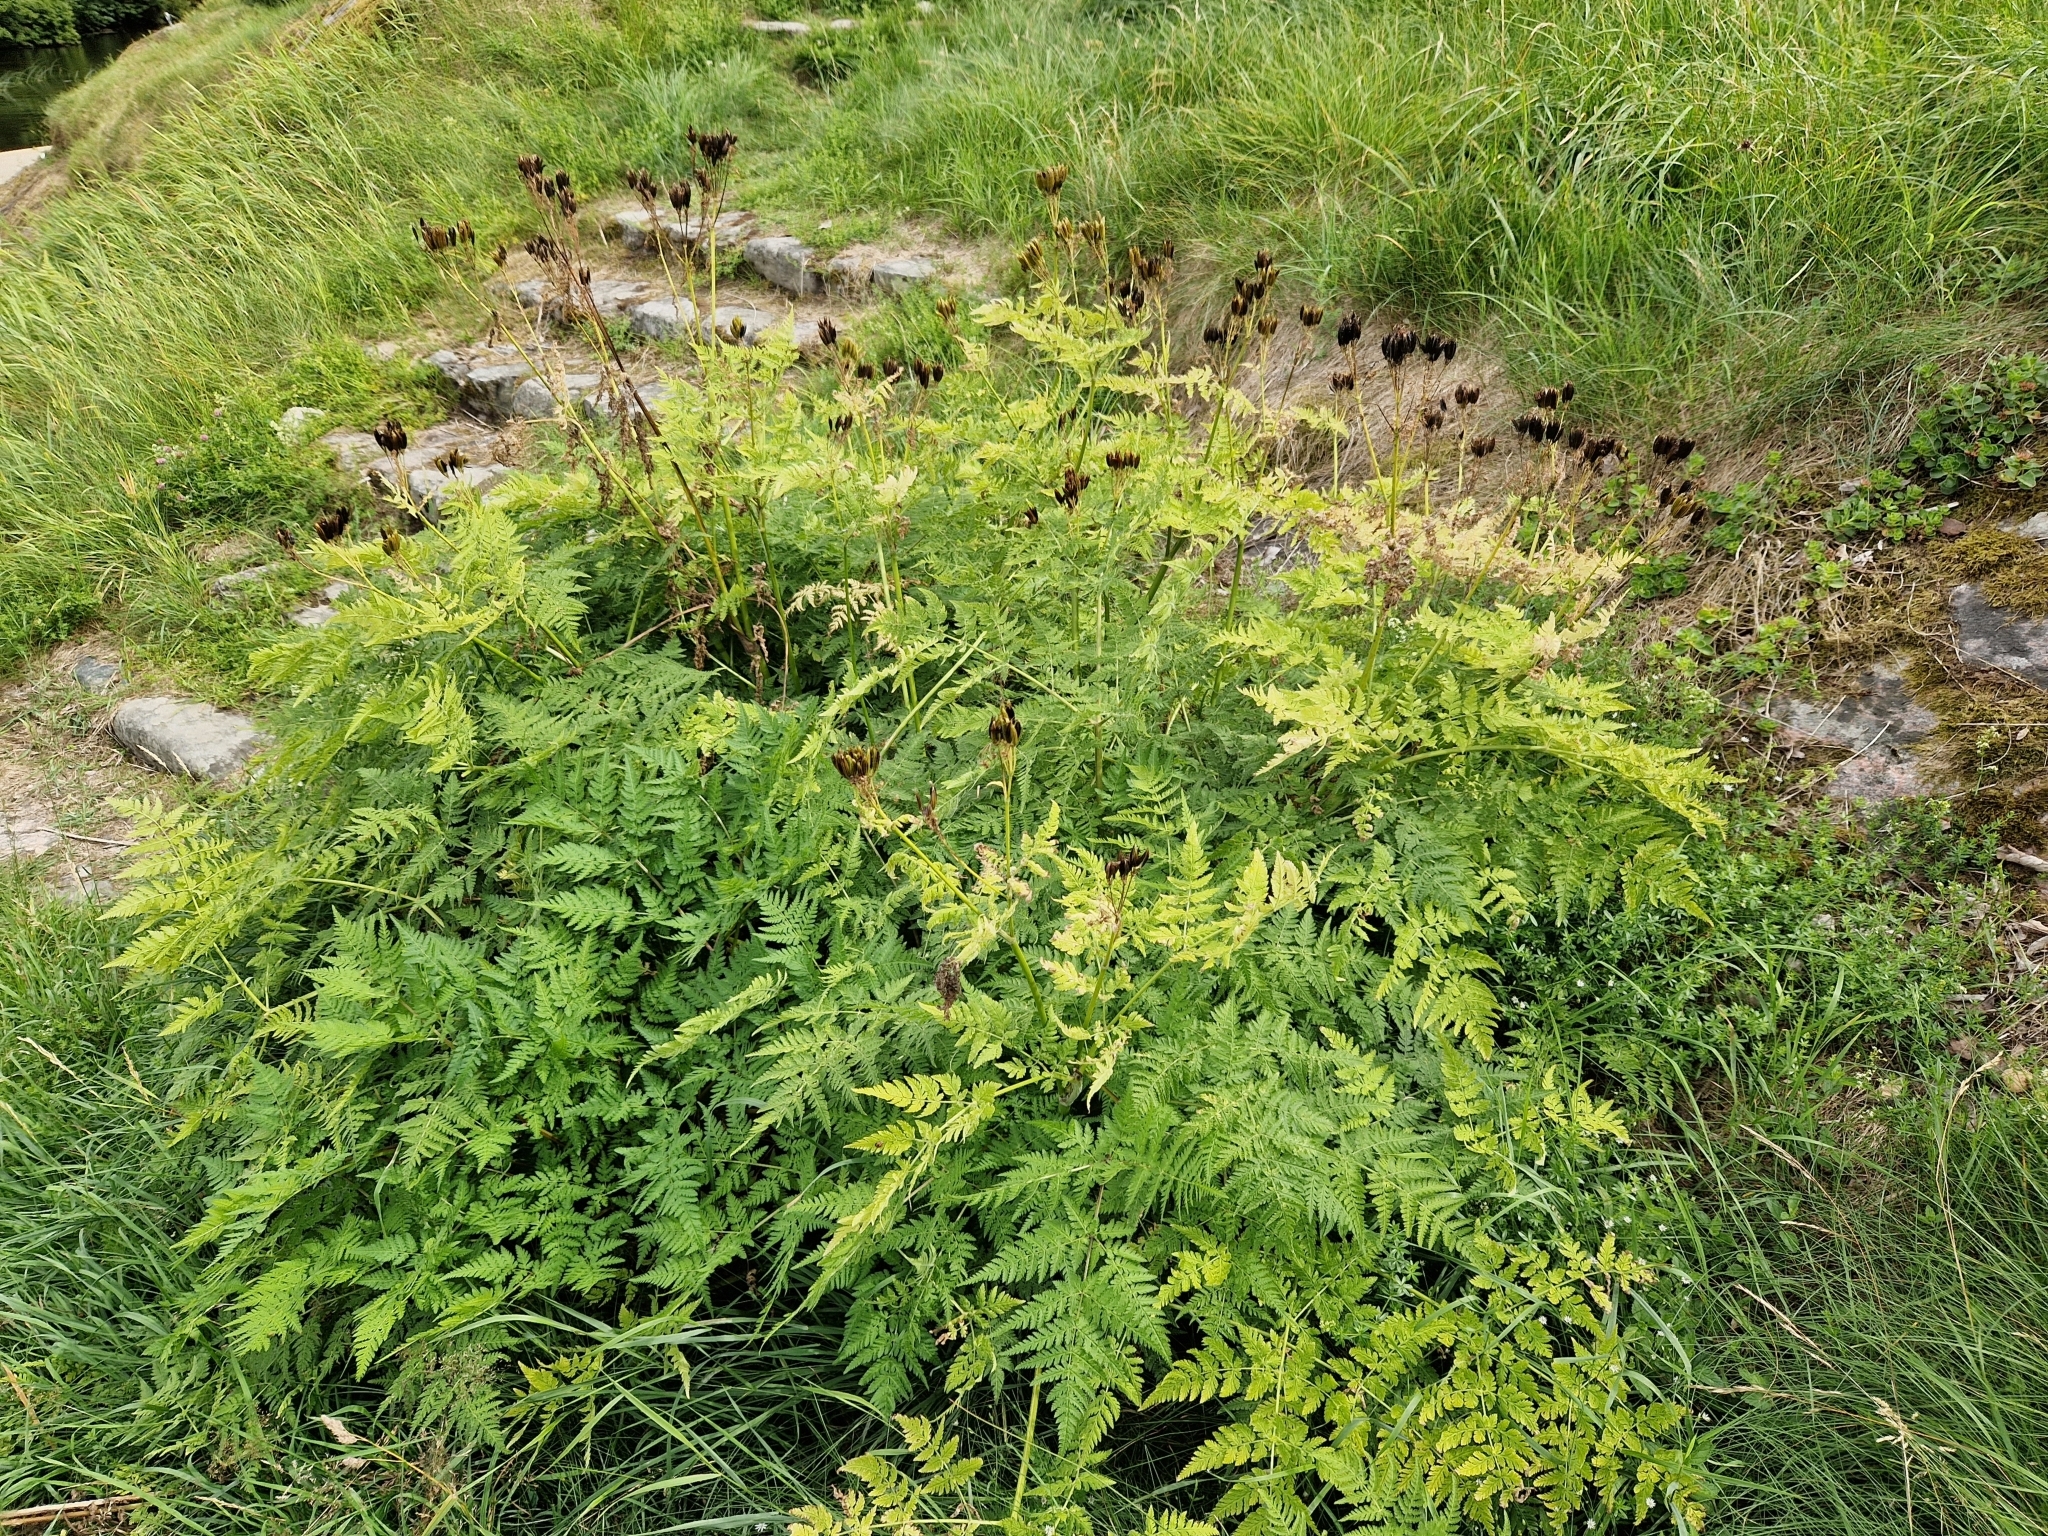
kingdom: Plantae
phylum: Tracheophyta
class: Magnoliopsida
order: Apiales
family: Apiaceae
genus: Myrrhis
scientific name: Myrrhis odorata
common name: Sweet cicely
